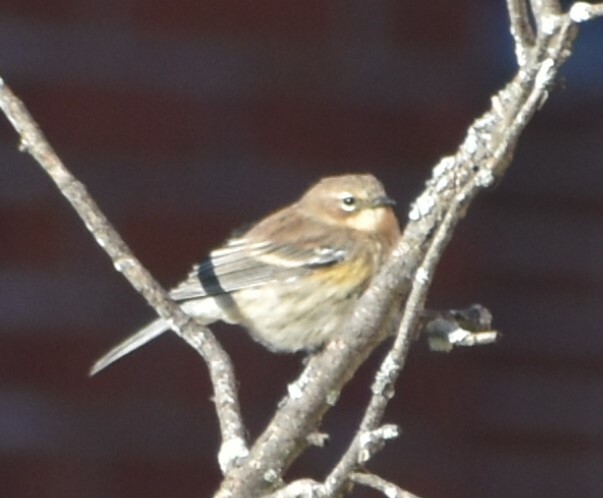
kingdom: Animalia
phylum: Chordata
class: Aves
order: Passeriformes
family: Parulidae
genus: Setophaga
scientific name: Setophaga coronata
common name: Myrtle warbler
